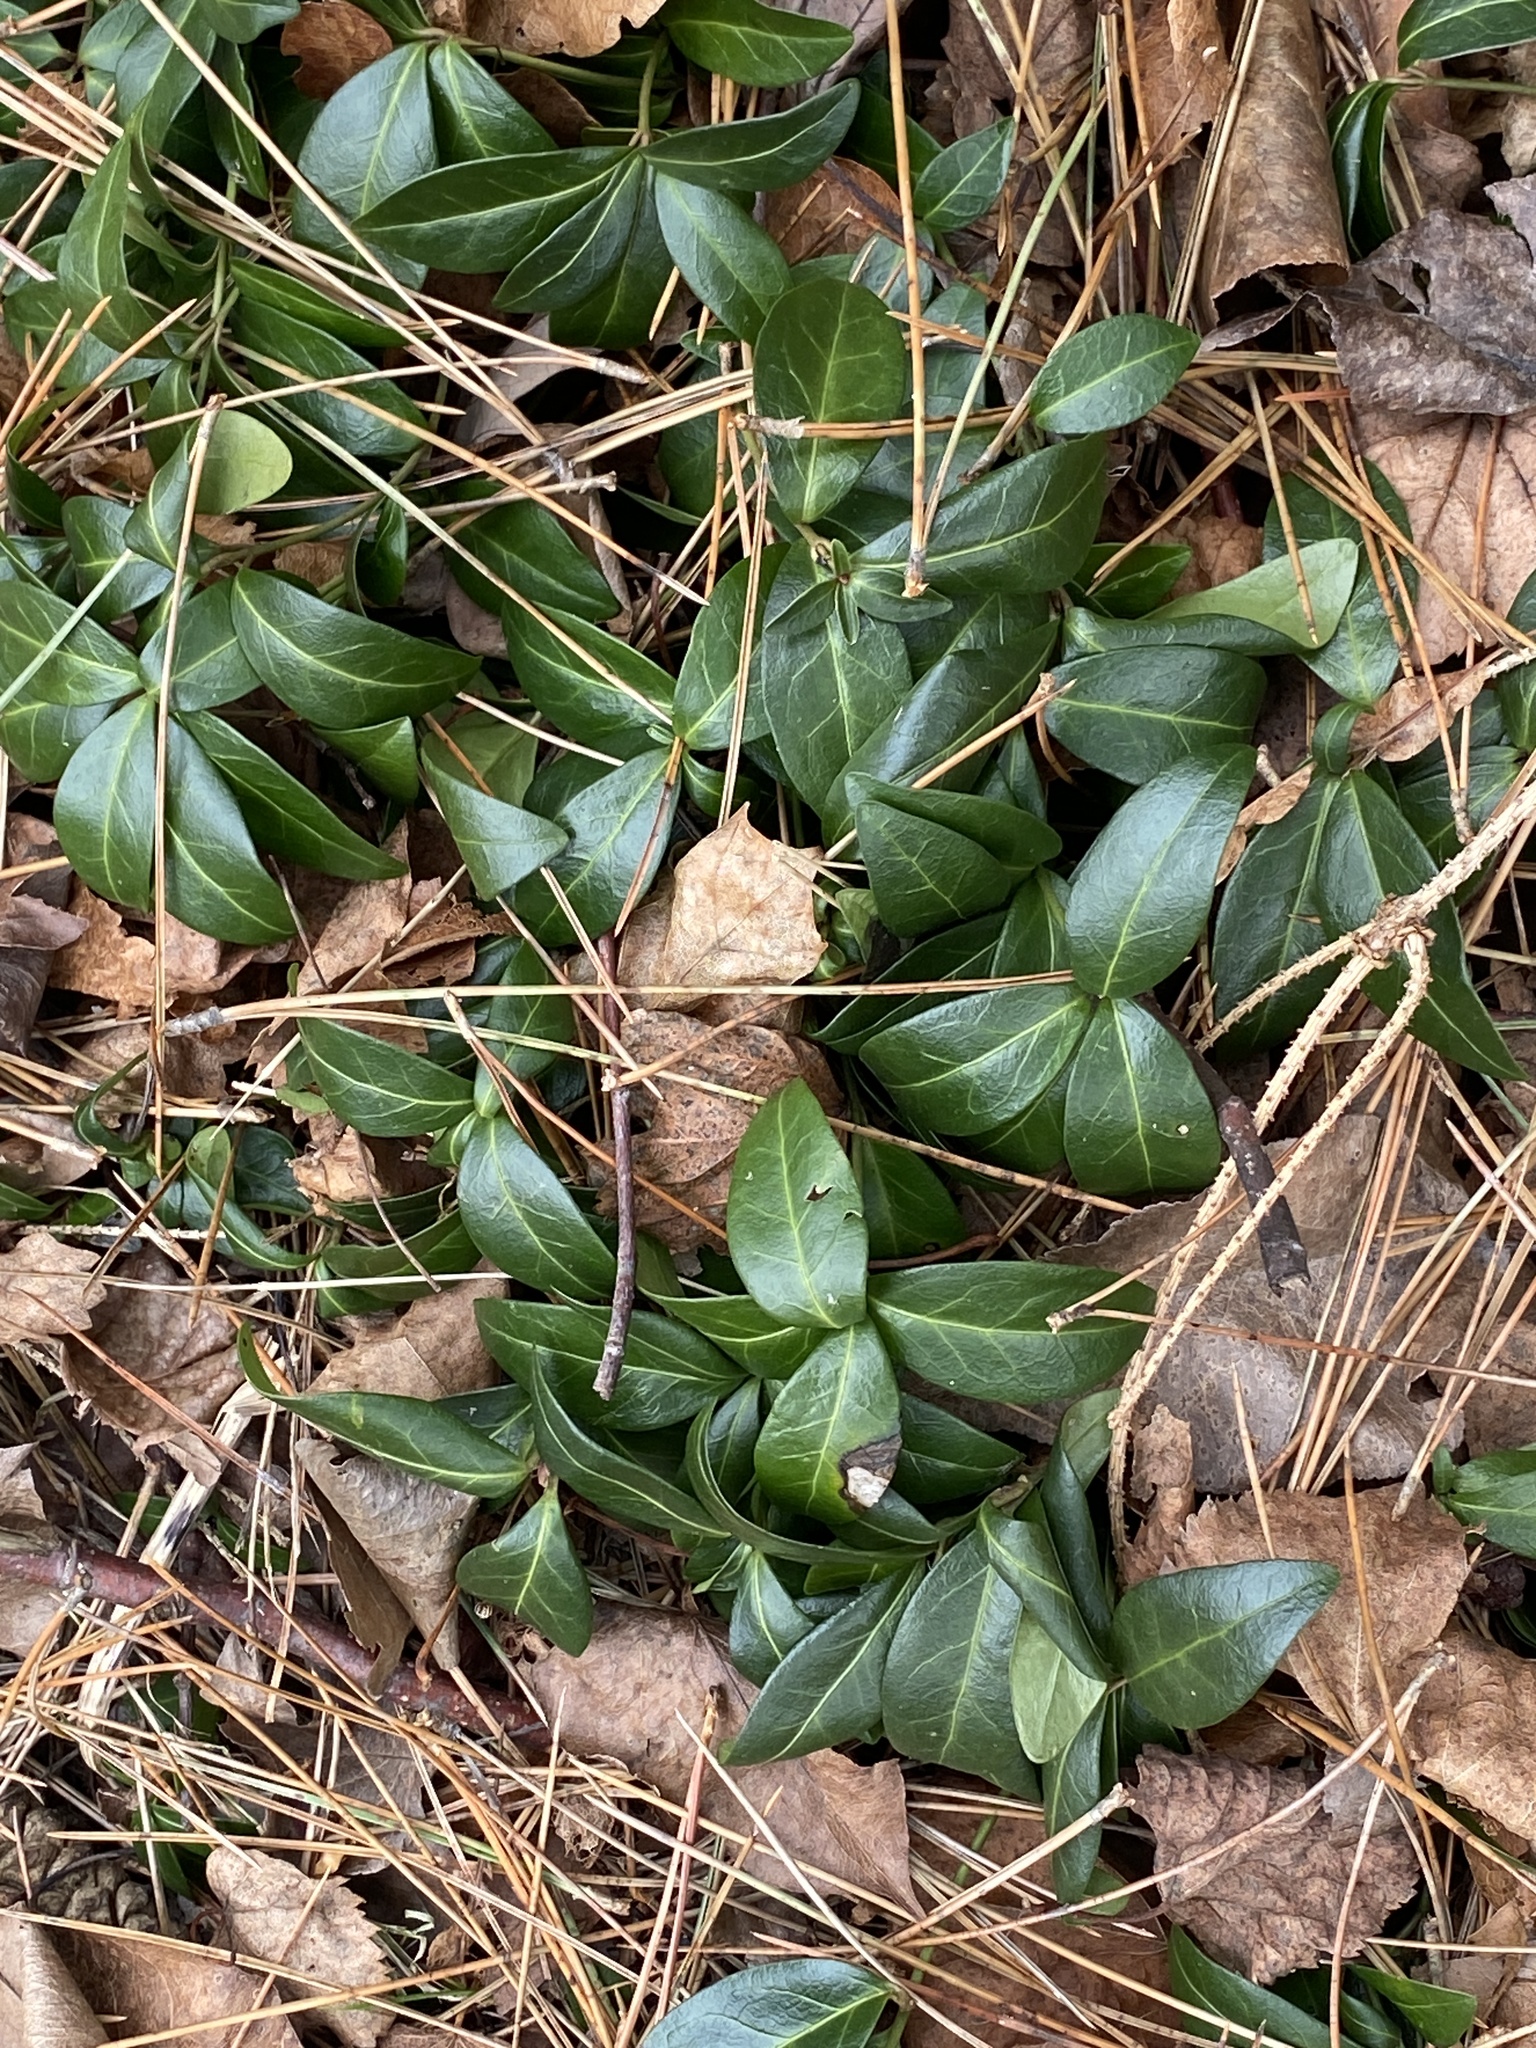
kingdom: Plantae
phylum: Tracheophyta
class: Magnoliopsida
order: Gentianales
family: Apocynaceae
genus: Vinca
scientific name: Vinca minor
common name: Lesser periwinkle
